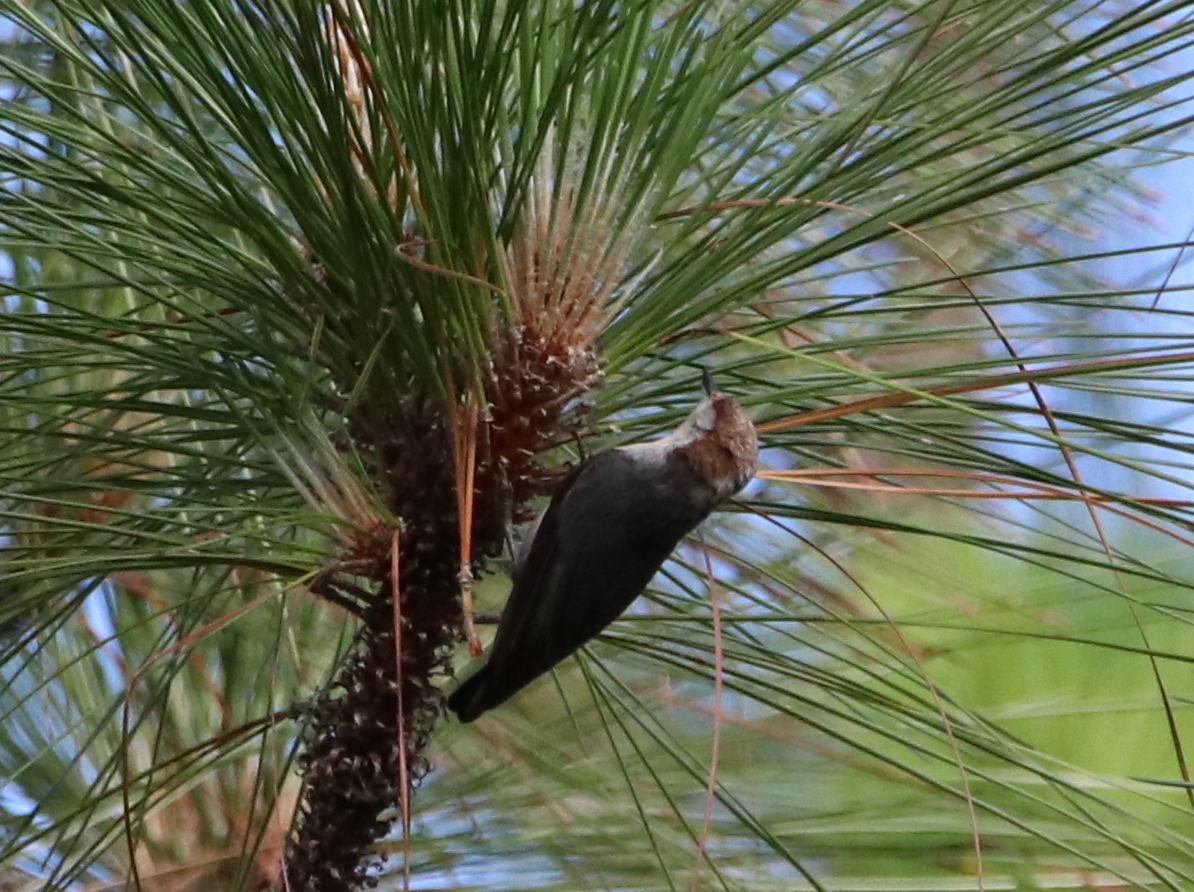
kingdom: Animalia
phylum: Chordata
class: Aves
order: Passeriformes
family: Sittidae
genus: Sitta
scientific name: Sitta pusilla
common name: Brown-headed nuthatch
